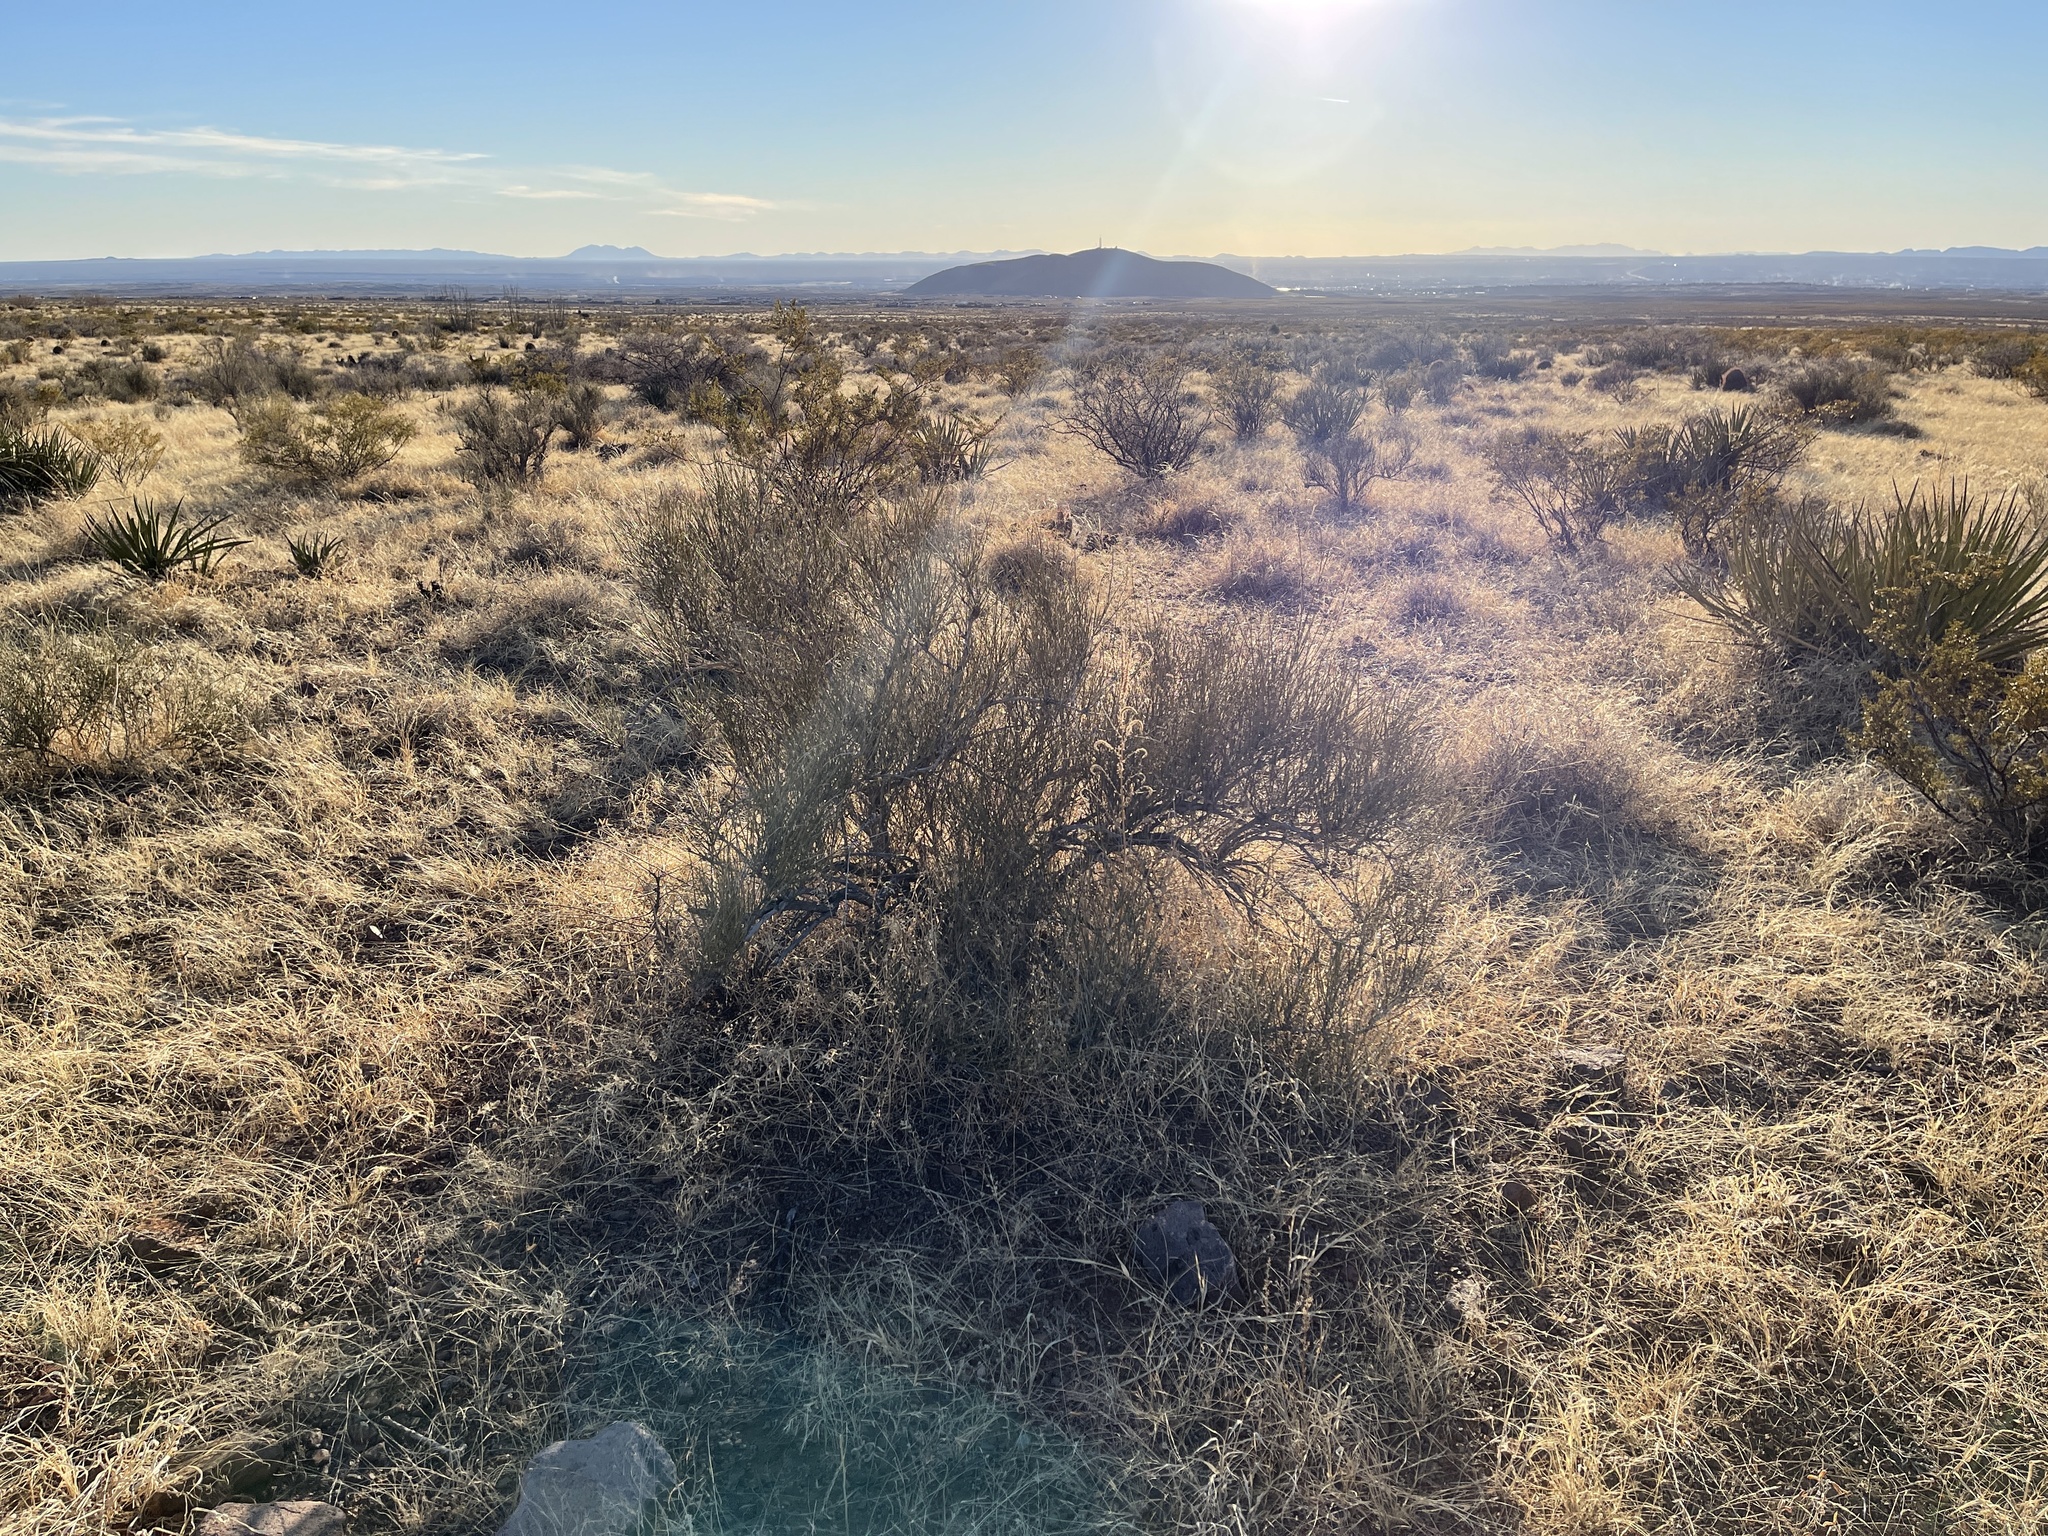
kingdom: Plantae
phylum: Tracheophyta
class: Gnetopsida
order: Ephedrales
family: Ephedraceae
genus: Ephedra
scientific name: Ephedra trifurca
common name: Mexican-tea
